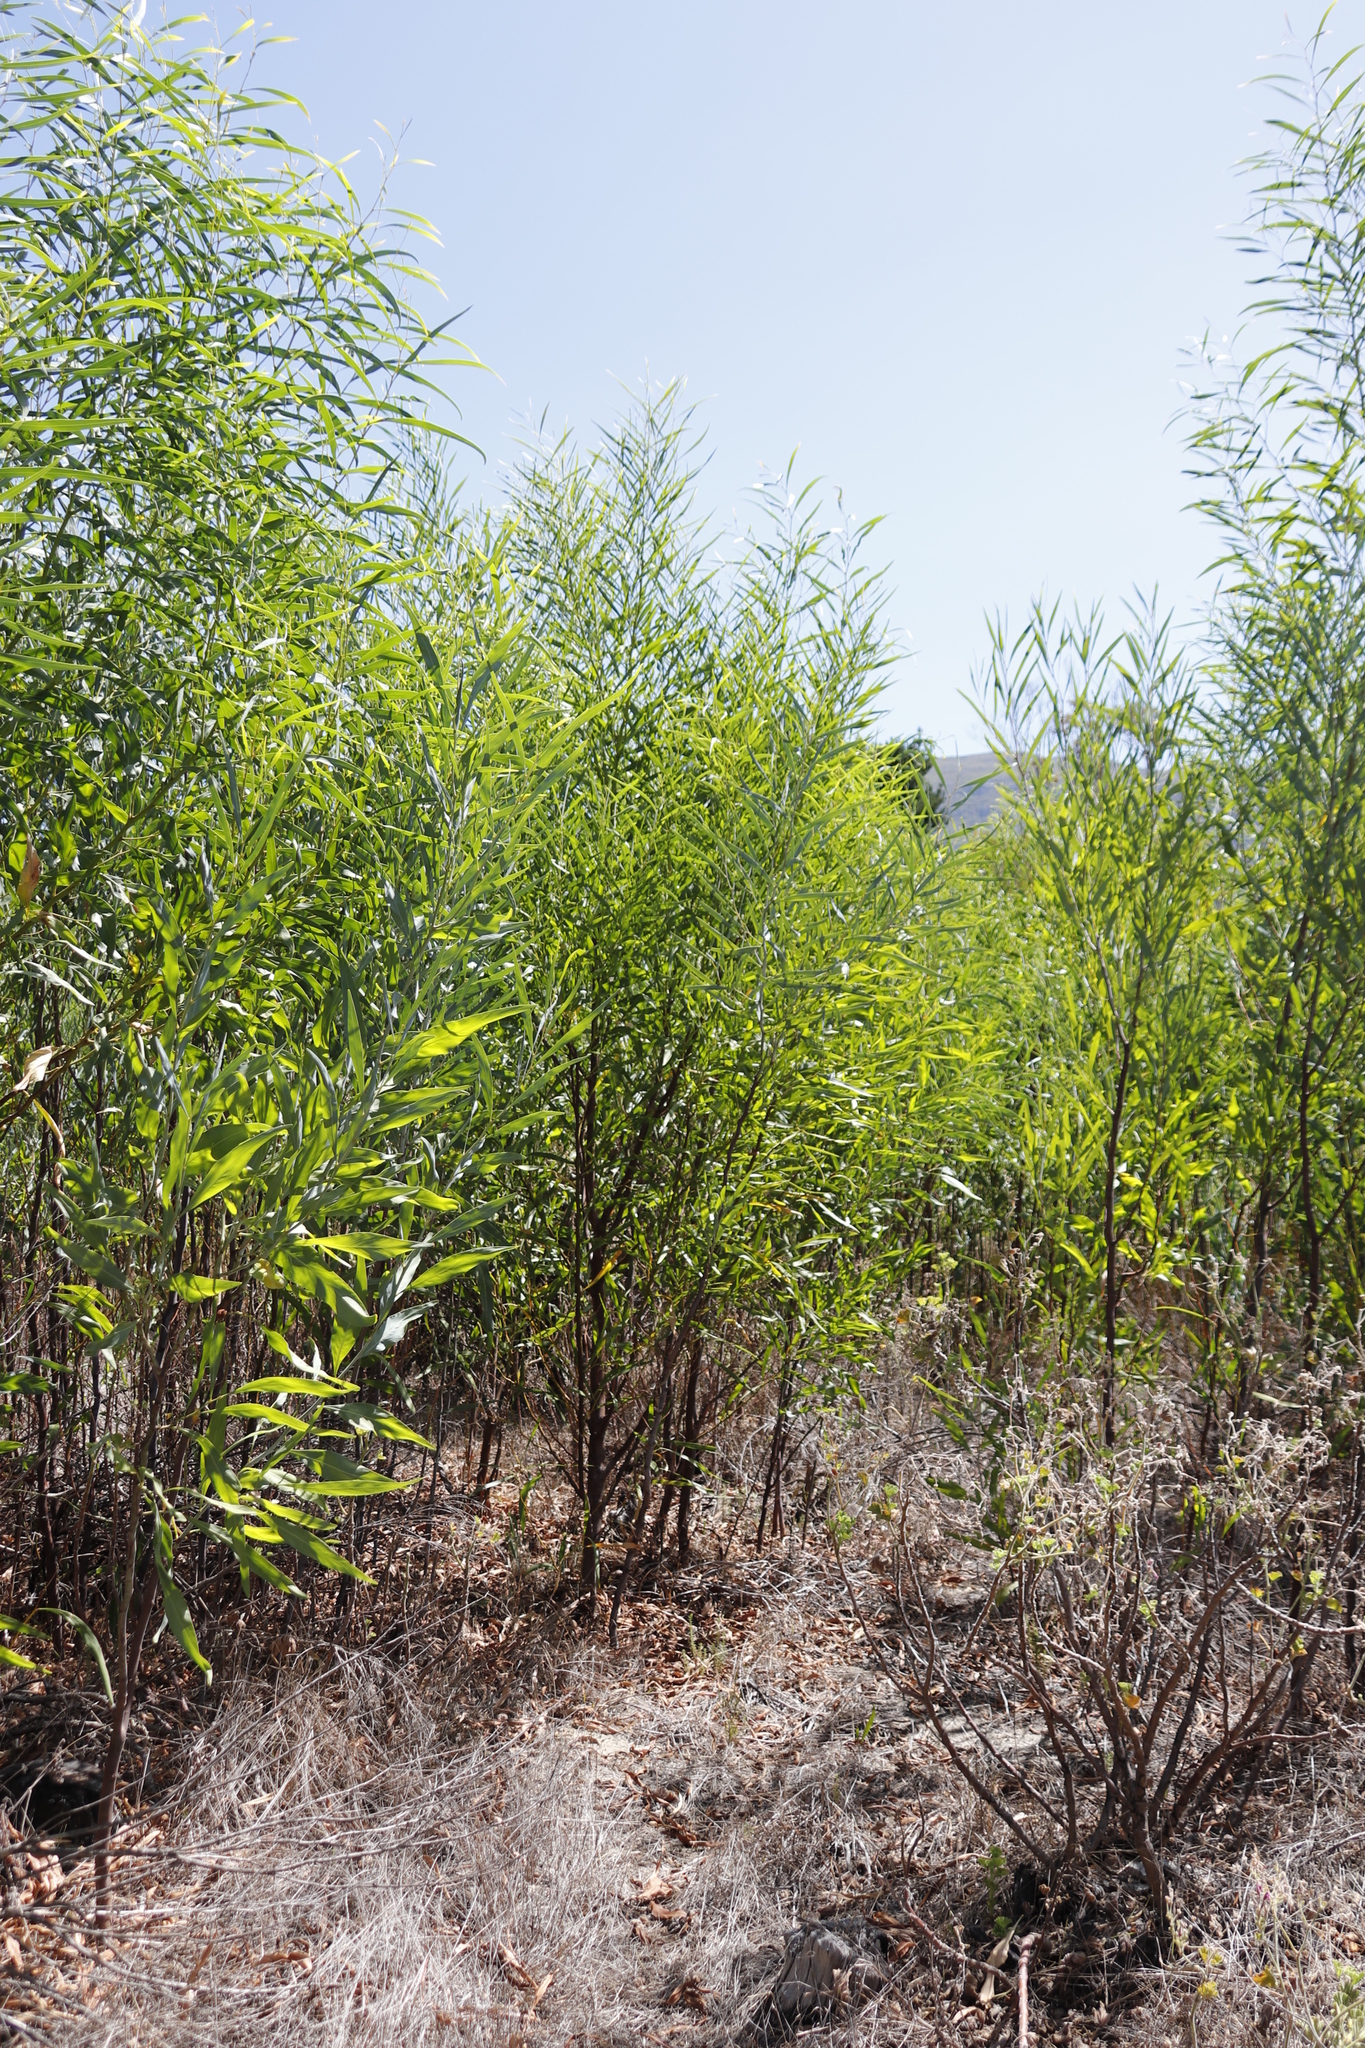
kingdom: Plantae
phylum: Tracheophyta
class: Magnoliopsida
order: Fabales
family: Fabaceae
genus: Acacia
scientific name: Acacia saligna
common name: Orange wattle
